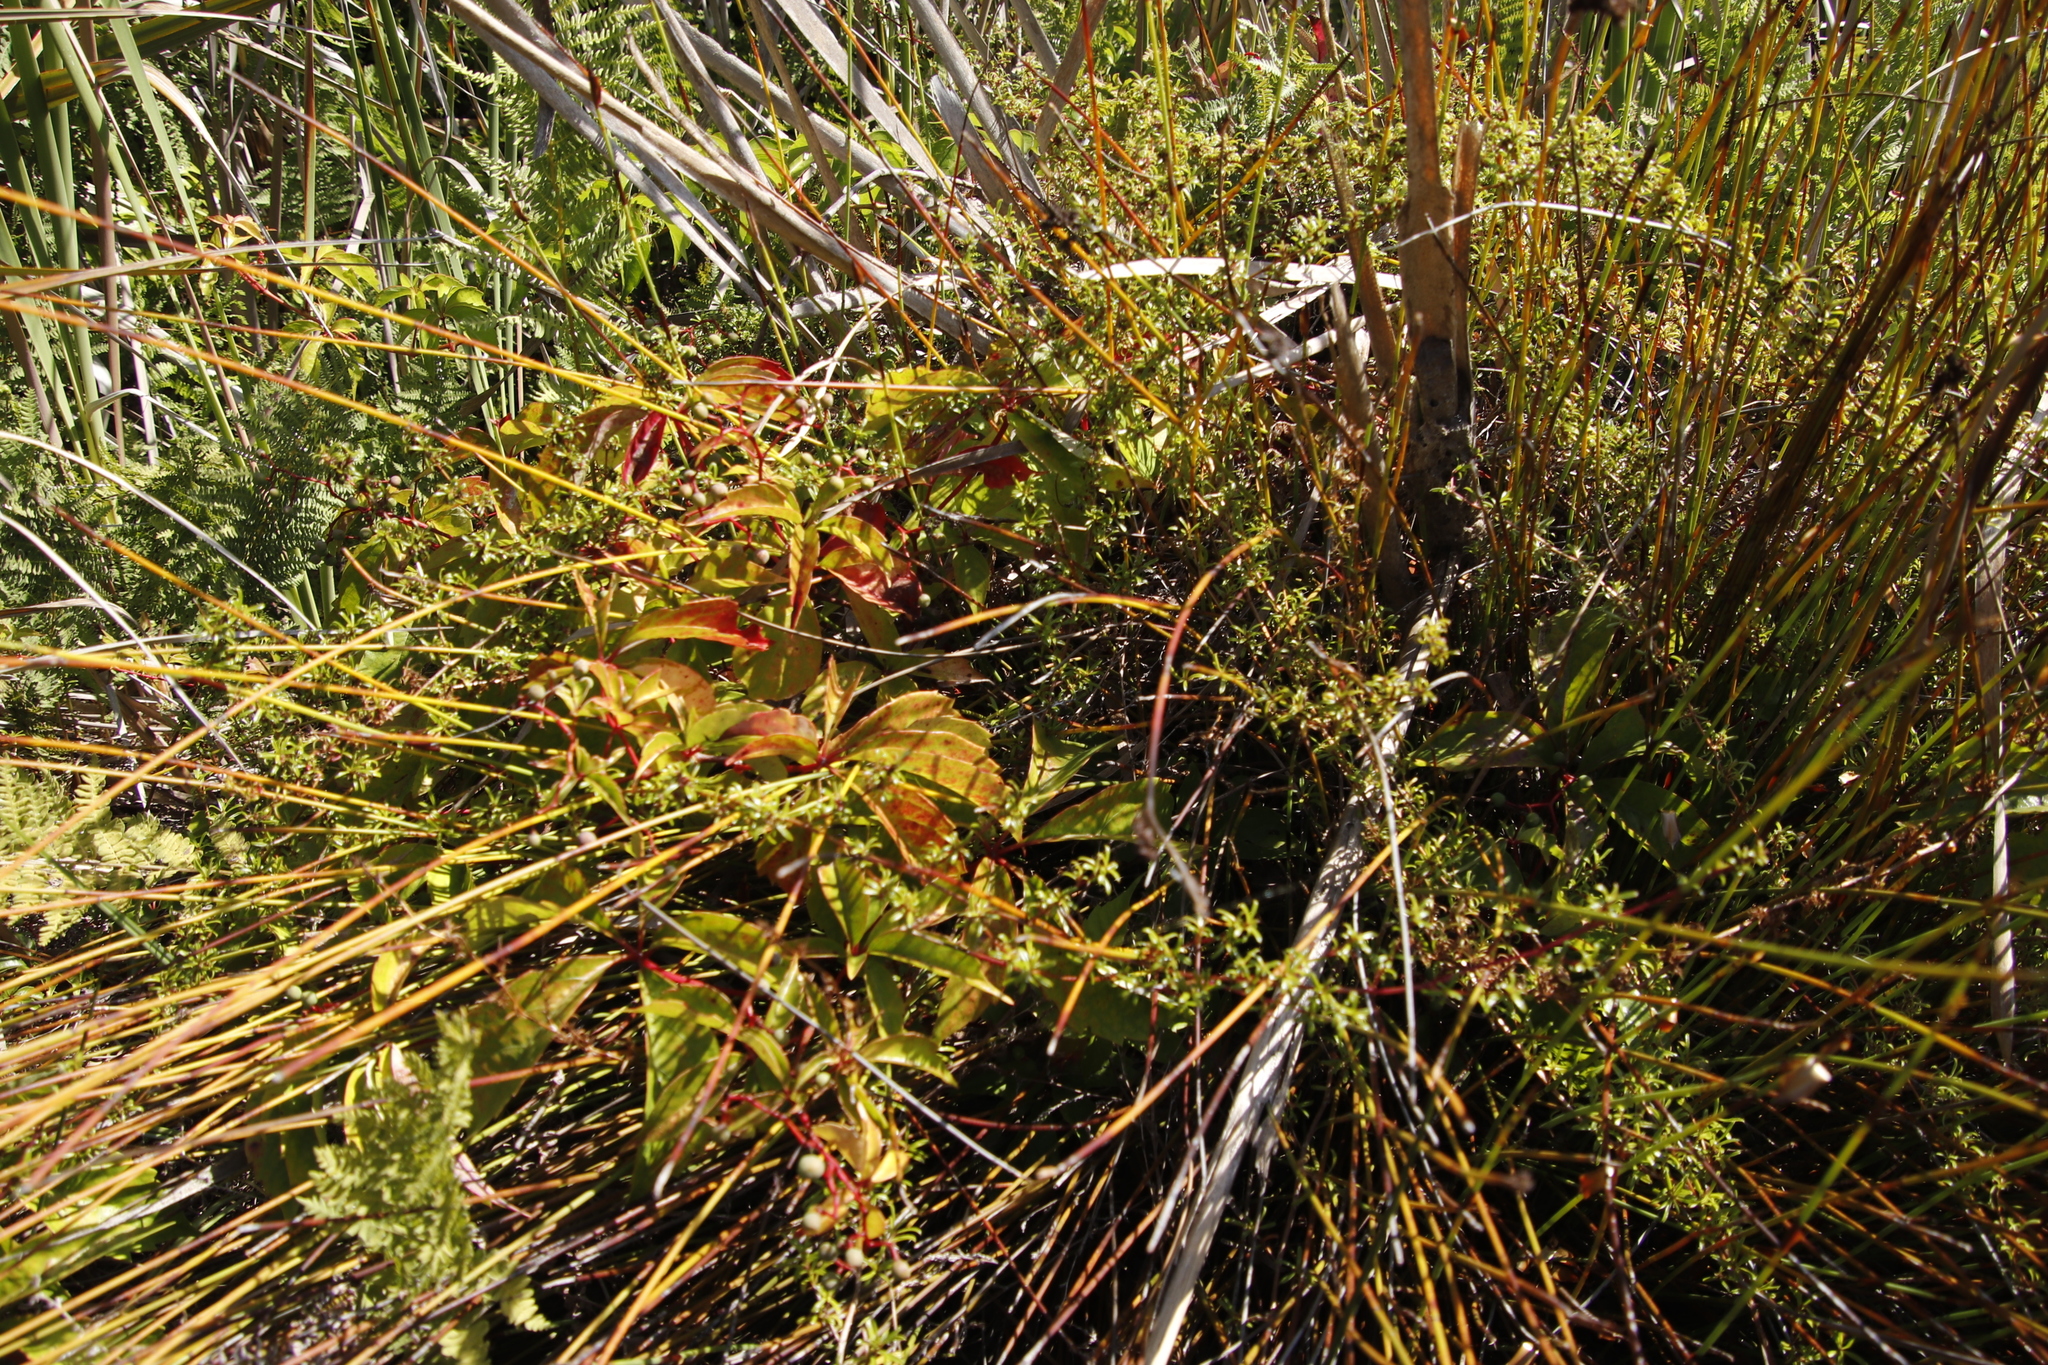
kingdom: Plantae
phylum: Tracheophyta
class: Magnoliopsida
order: Vitales
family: Vitaceae
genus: Parthenocissus
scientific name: Parthenocissus quinquefolia
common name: Virginia-creeper
